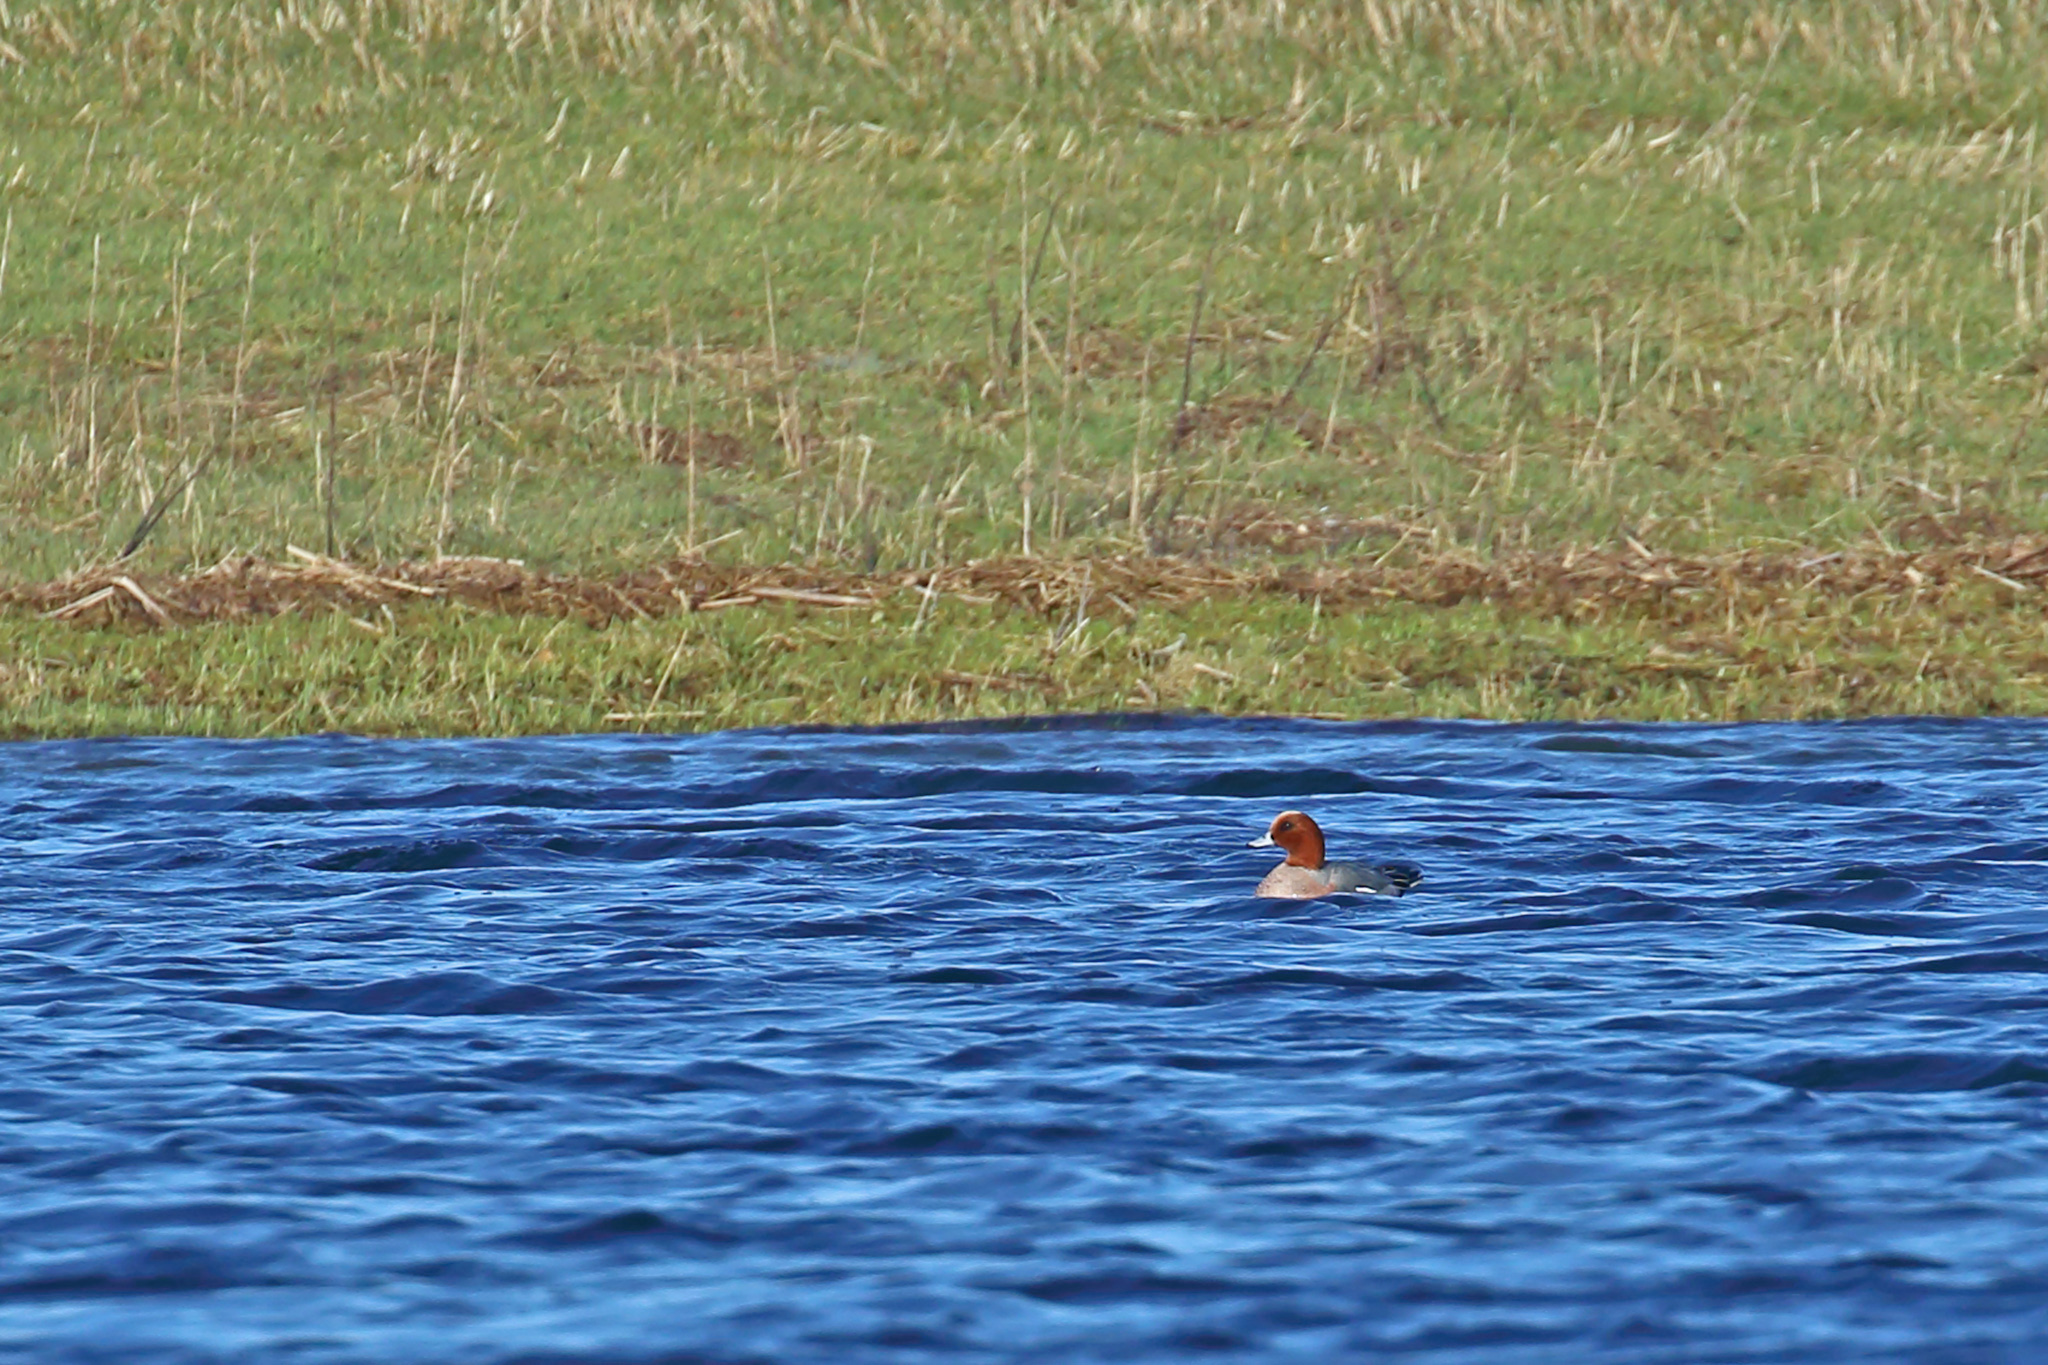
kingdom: Animalia
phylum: Chordata
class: Aves
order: Anseriformes
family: Anatidae
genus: Mareca
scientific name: Mareca penelope
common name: Eurasian wigeon
